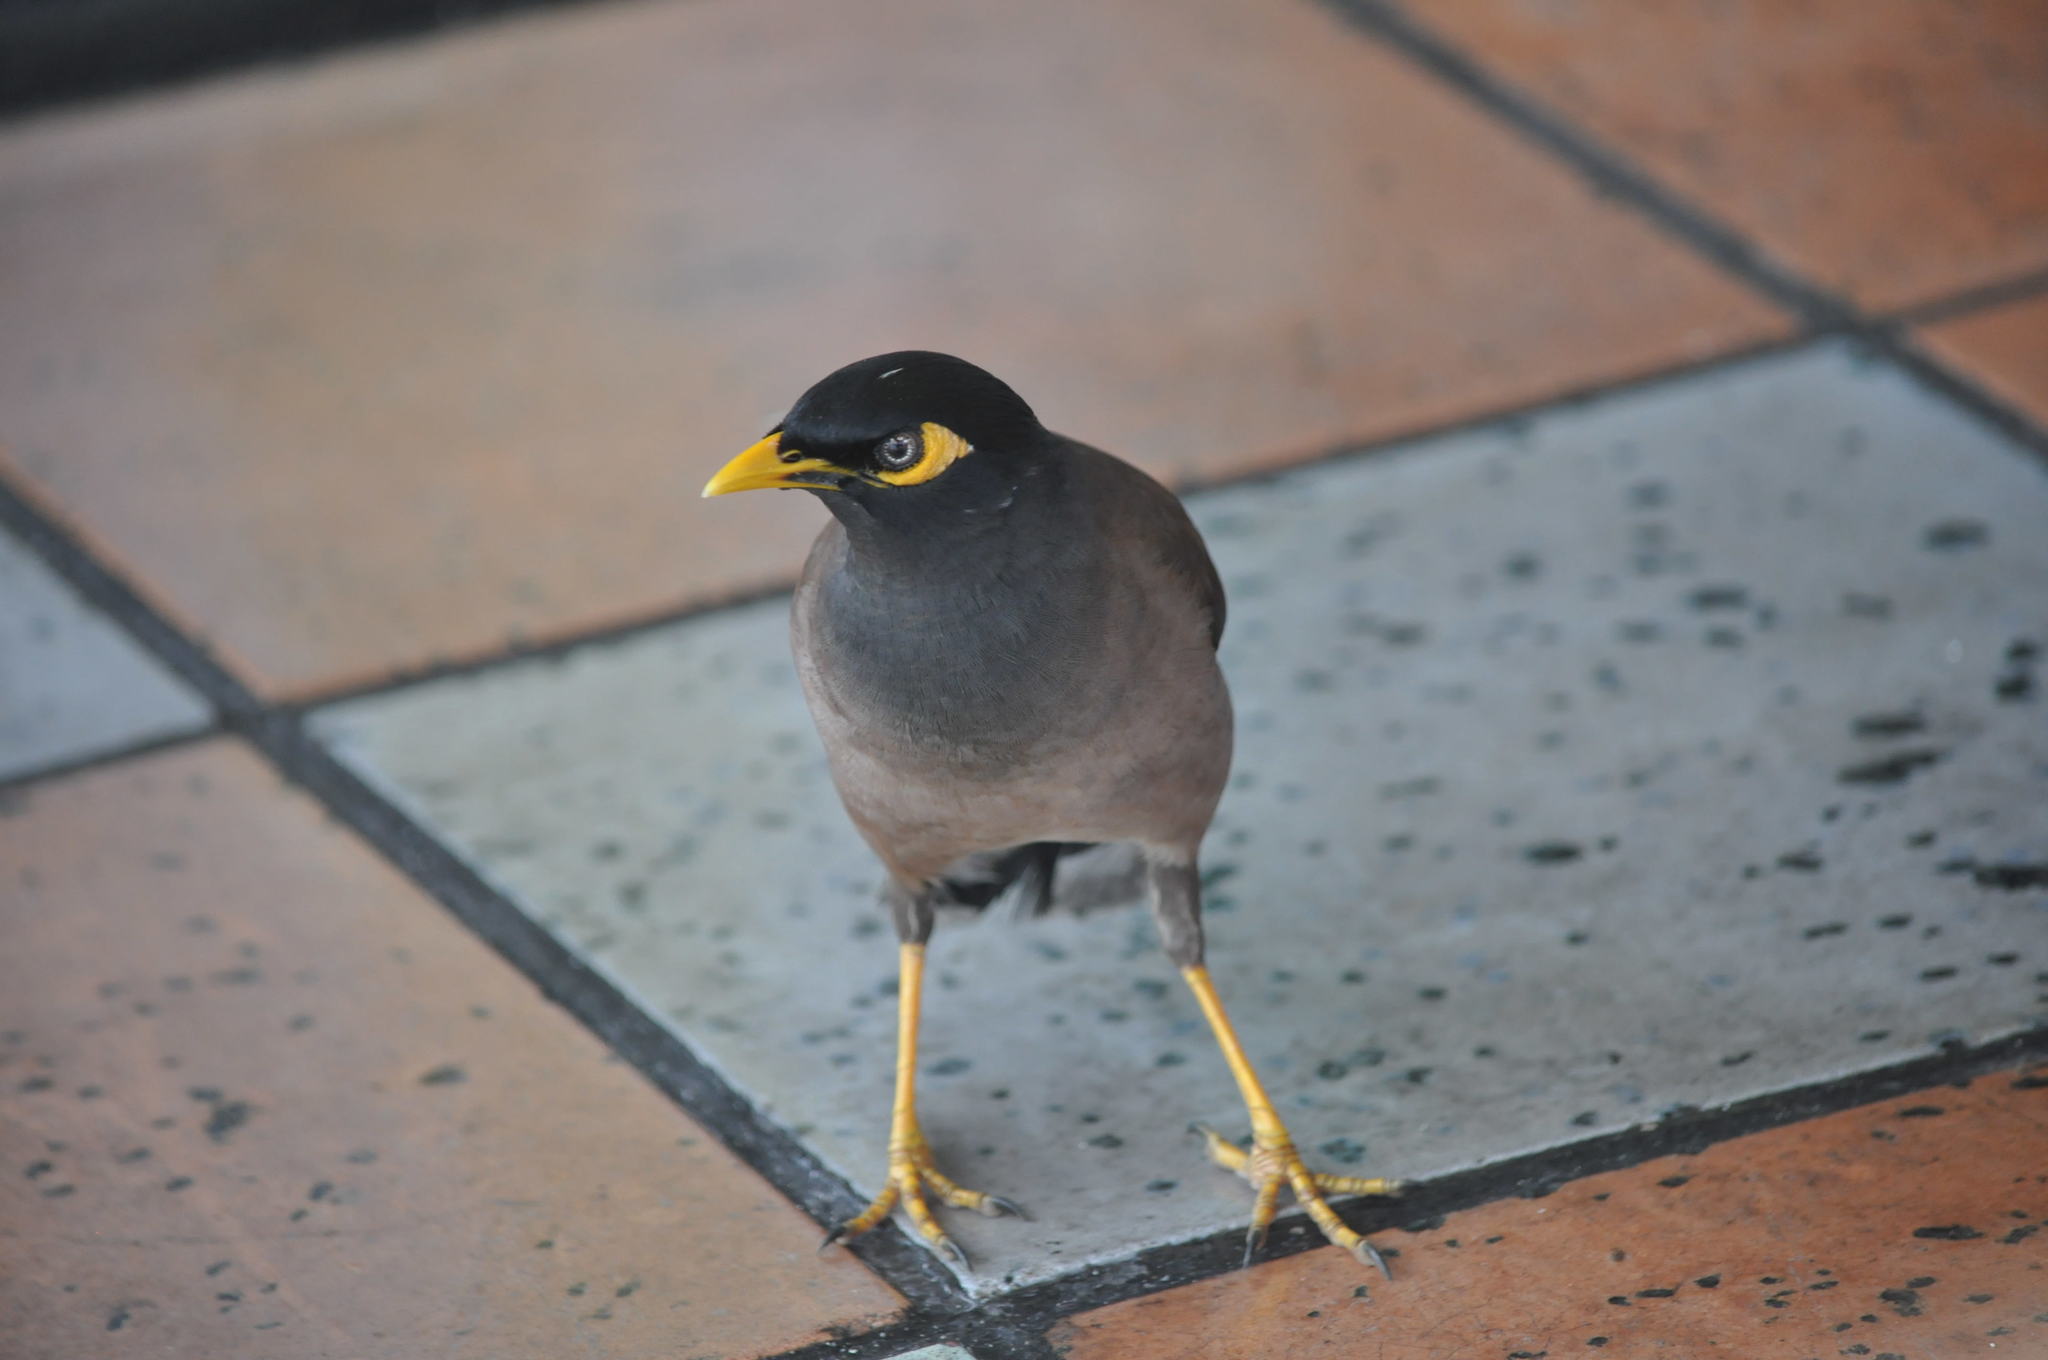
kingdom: Animalia
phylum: Chordata
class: Aves
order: Passeriformes
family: Sturnidae
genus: Acridotheres
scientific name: Acridotheres tristis
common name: Common myna
